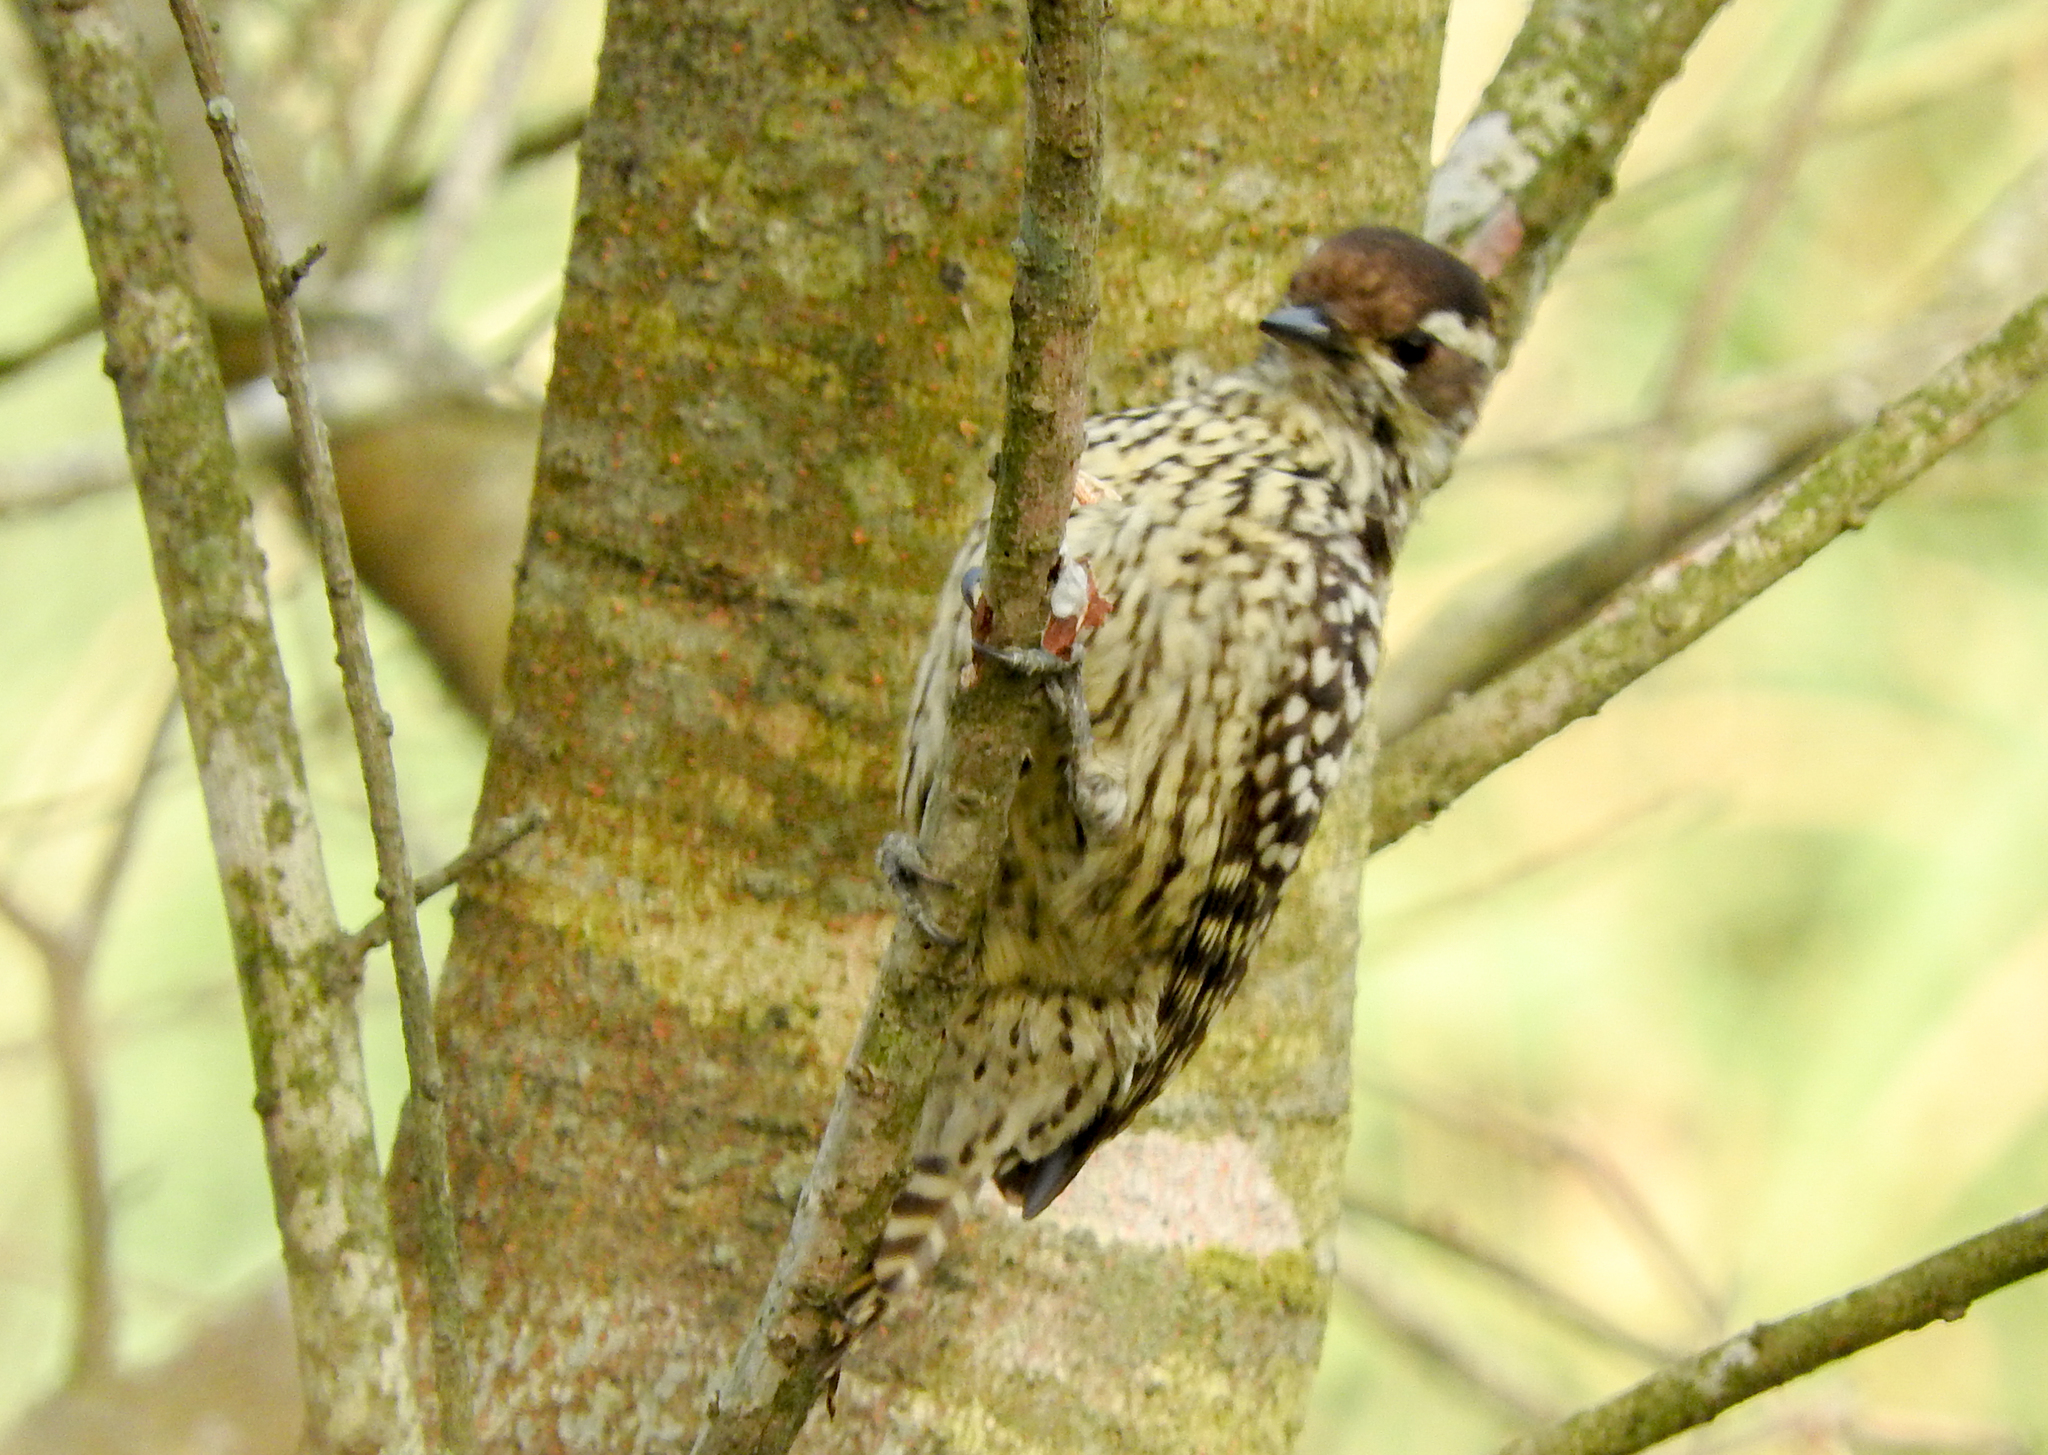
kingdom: Animalia
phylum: Chordata
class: Aves
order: Piciformes
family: Picidae
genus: Veniliornis
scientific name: Veniliornis mixtus
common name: Checkered woodpecker
